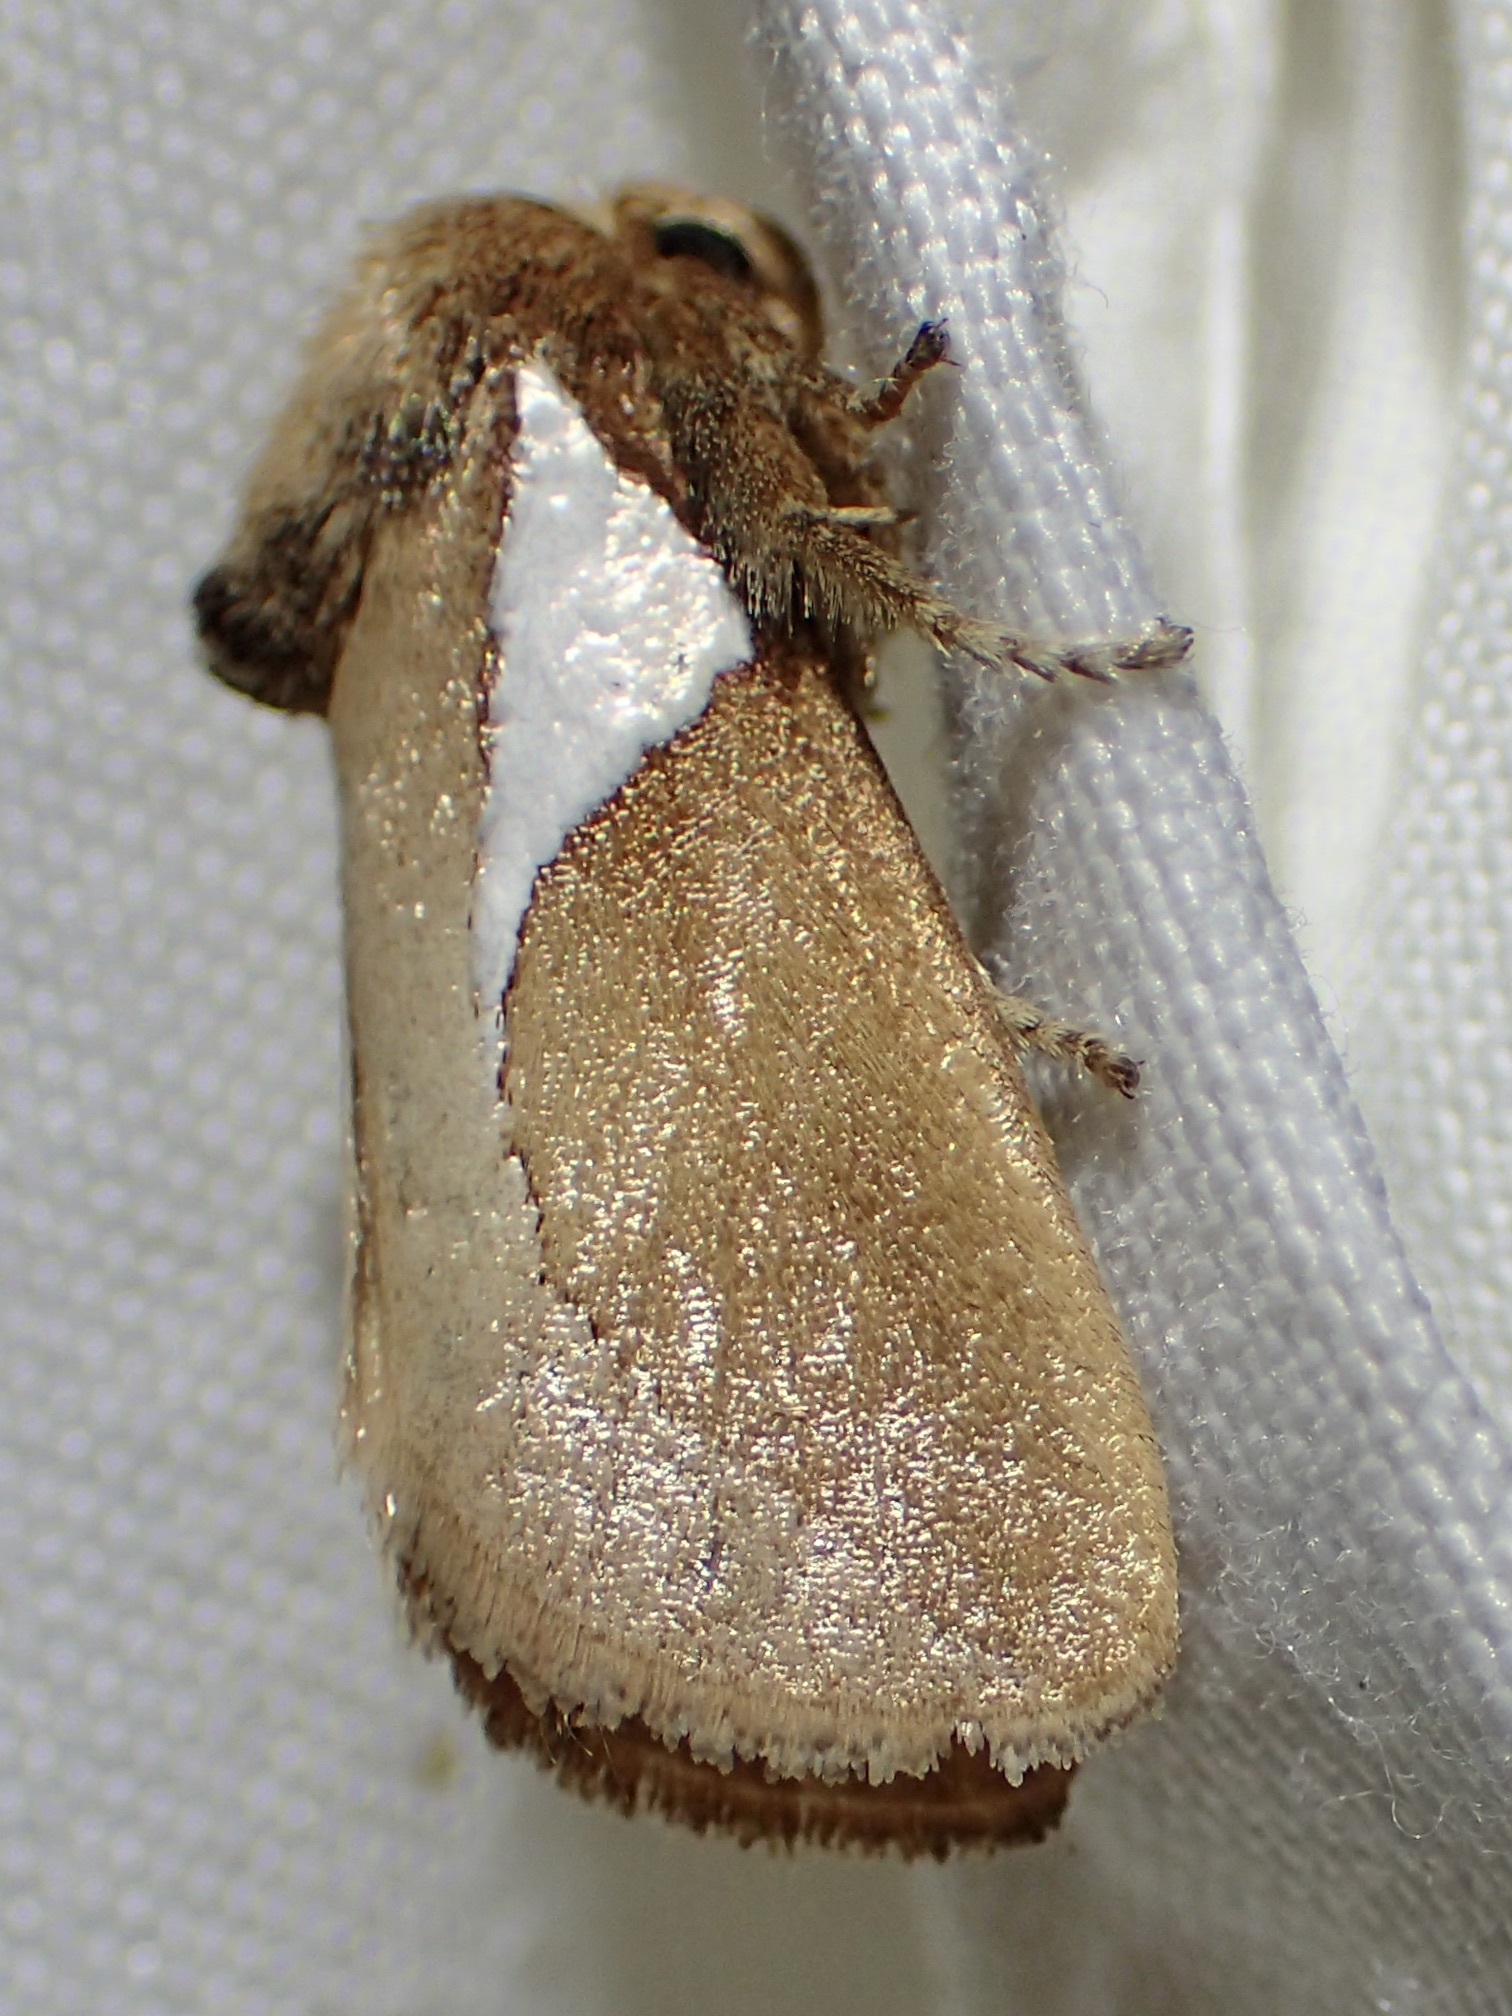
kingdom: Animalia
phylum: Arthropoda
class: Insecta
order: Lepidoptera
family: Limacodidae
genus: Prolimacodes
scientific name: Prolimacodes trigona
